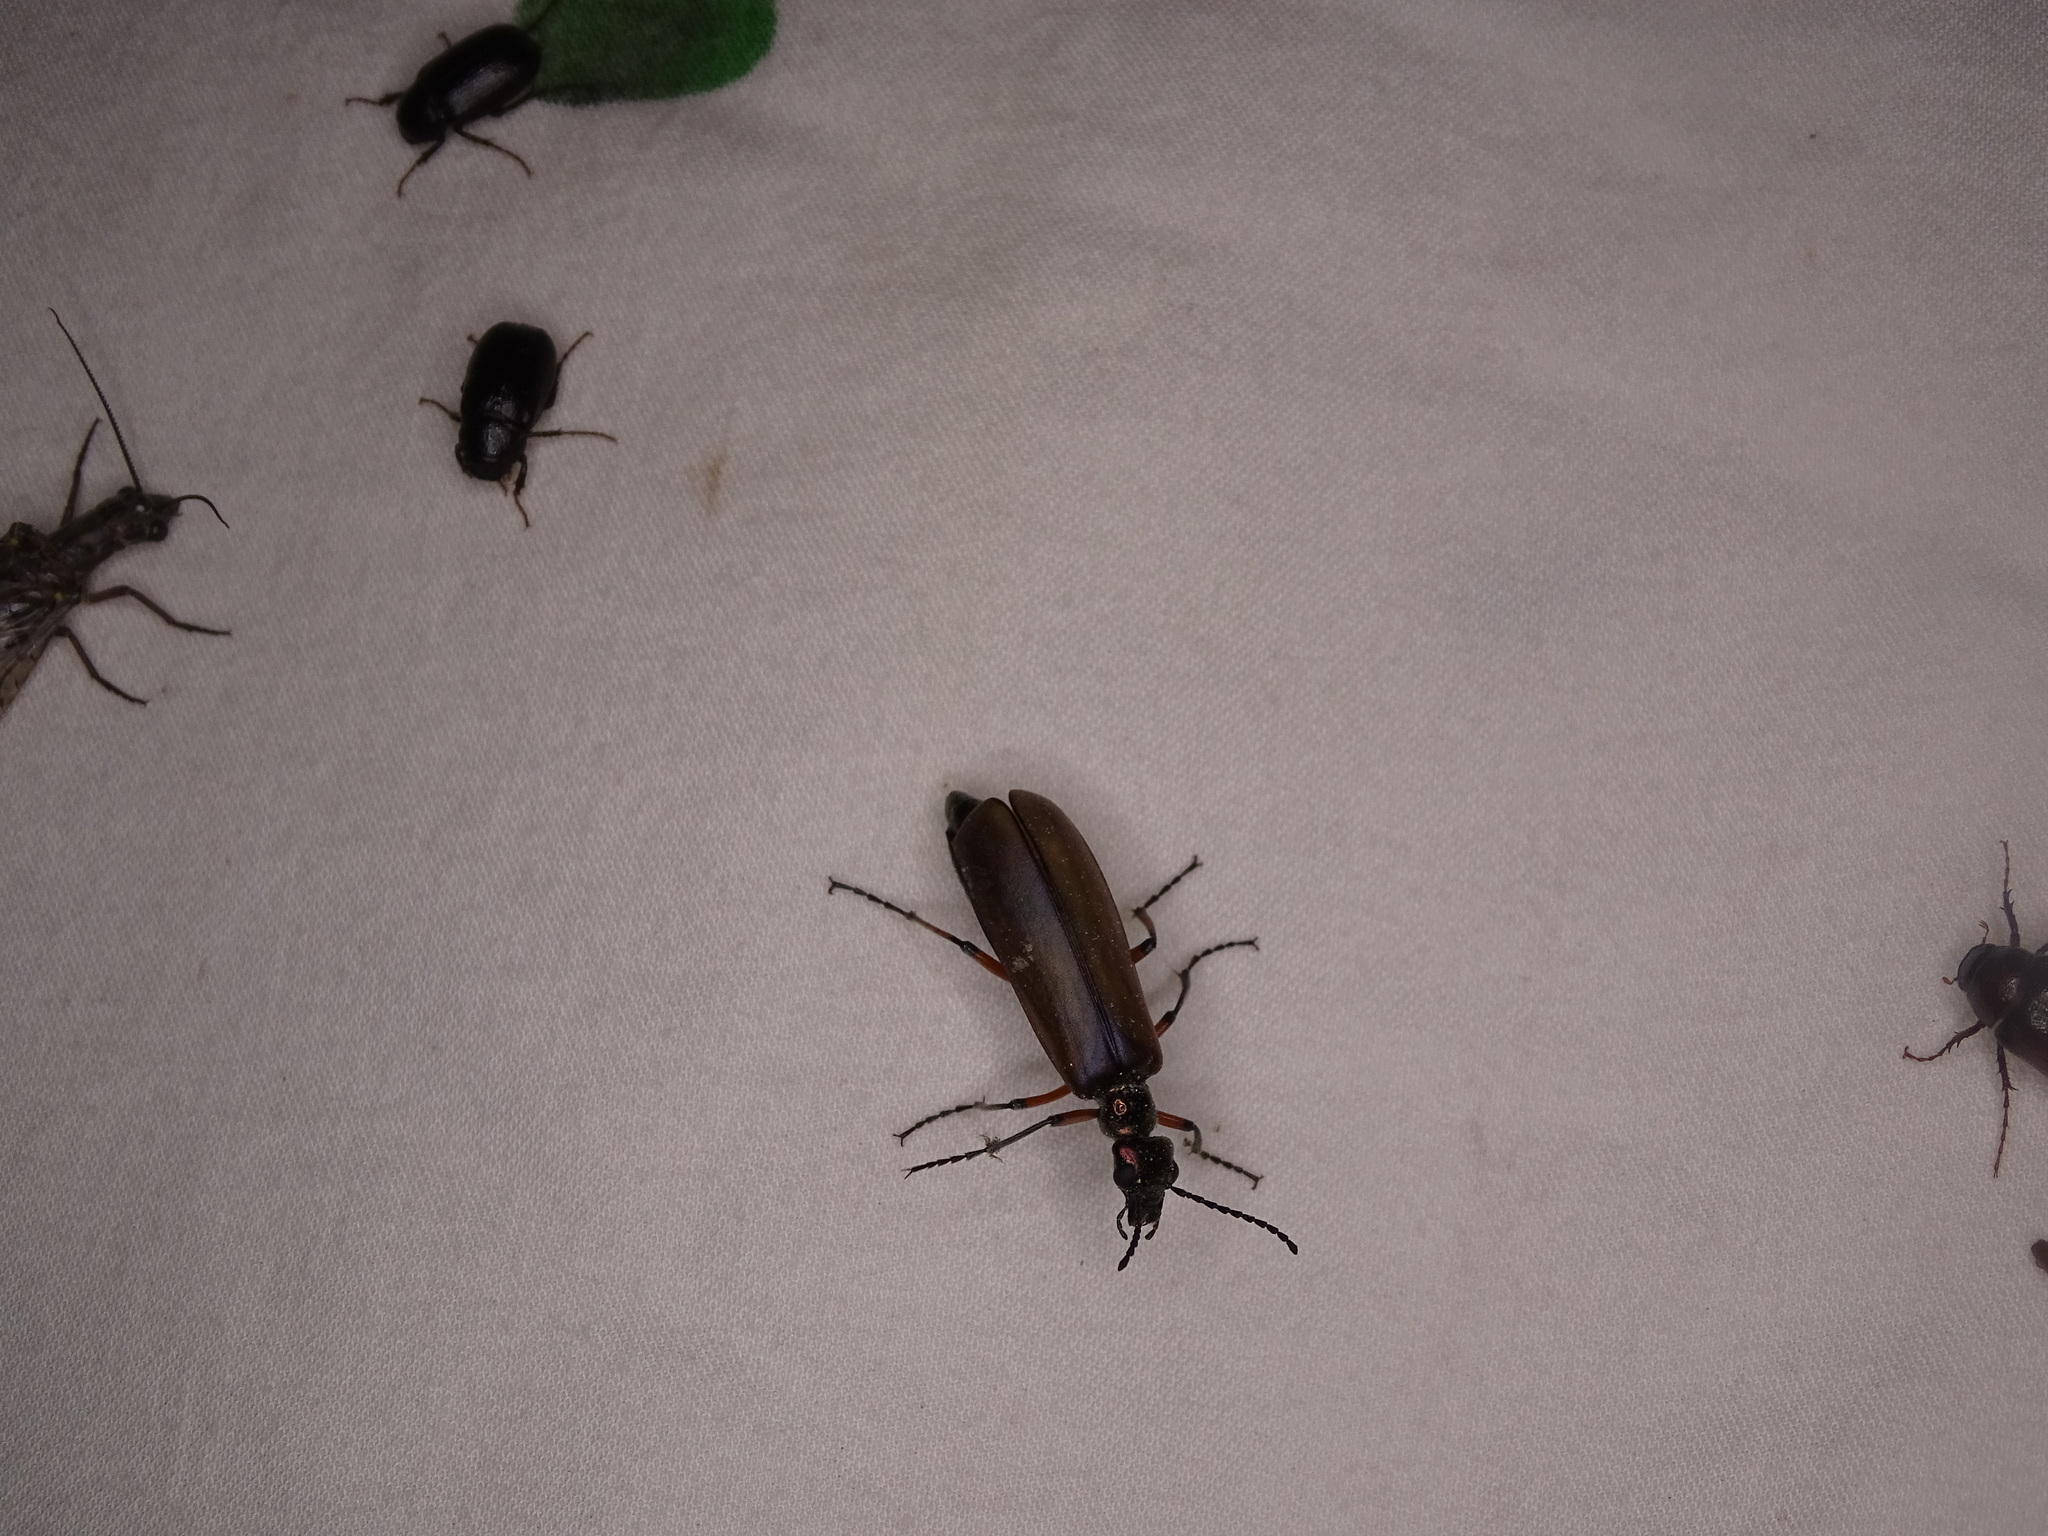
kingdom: Animalia
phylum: Arthropoda
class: Insecta
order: Coleoptera
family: Meloidae
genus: Lytta
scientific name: Lytta polita
